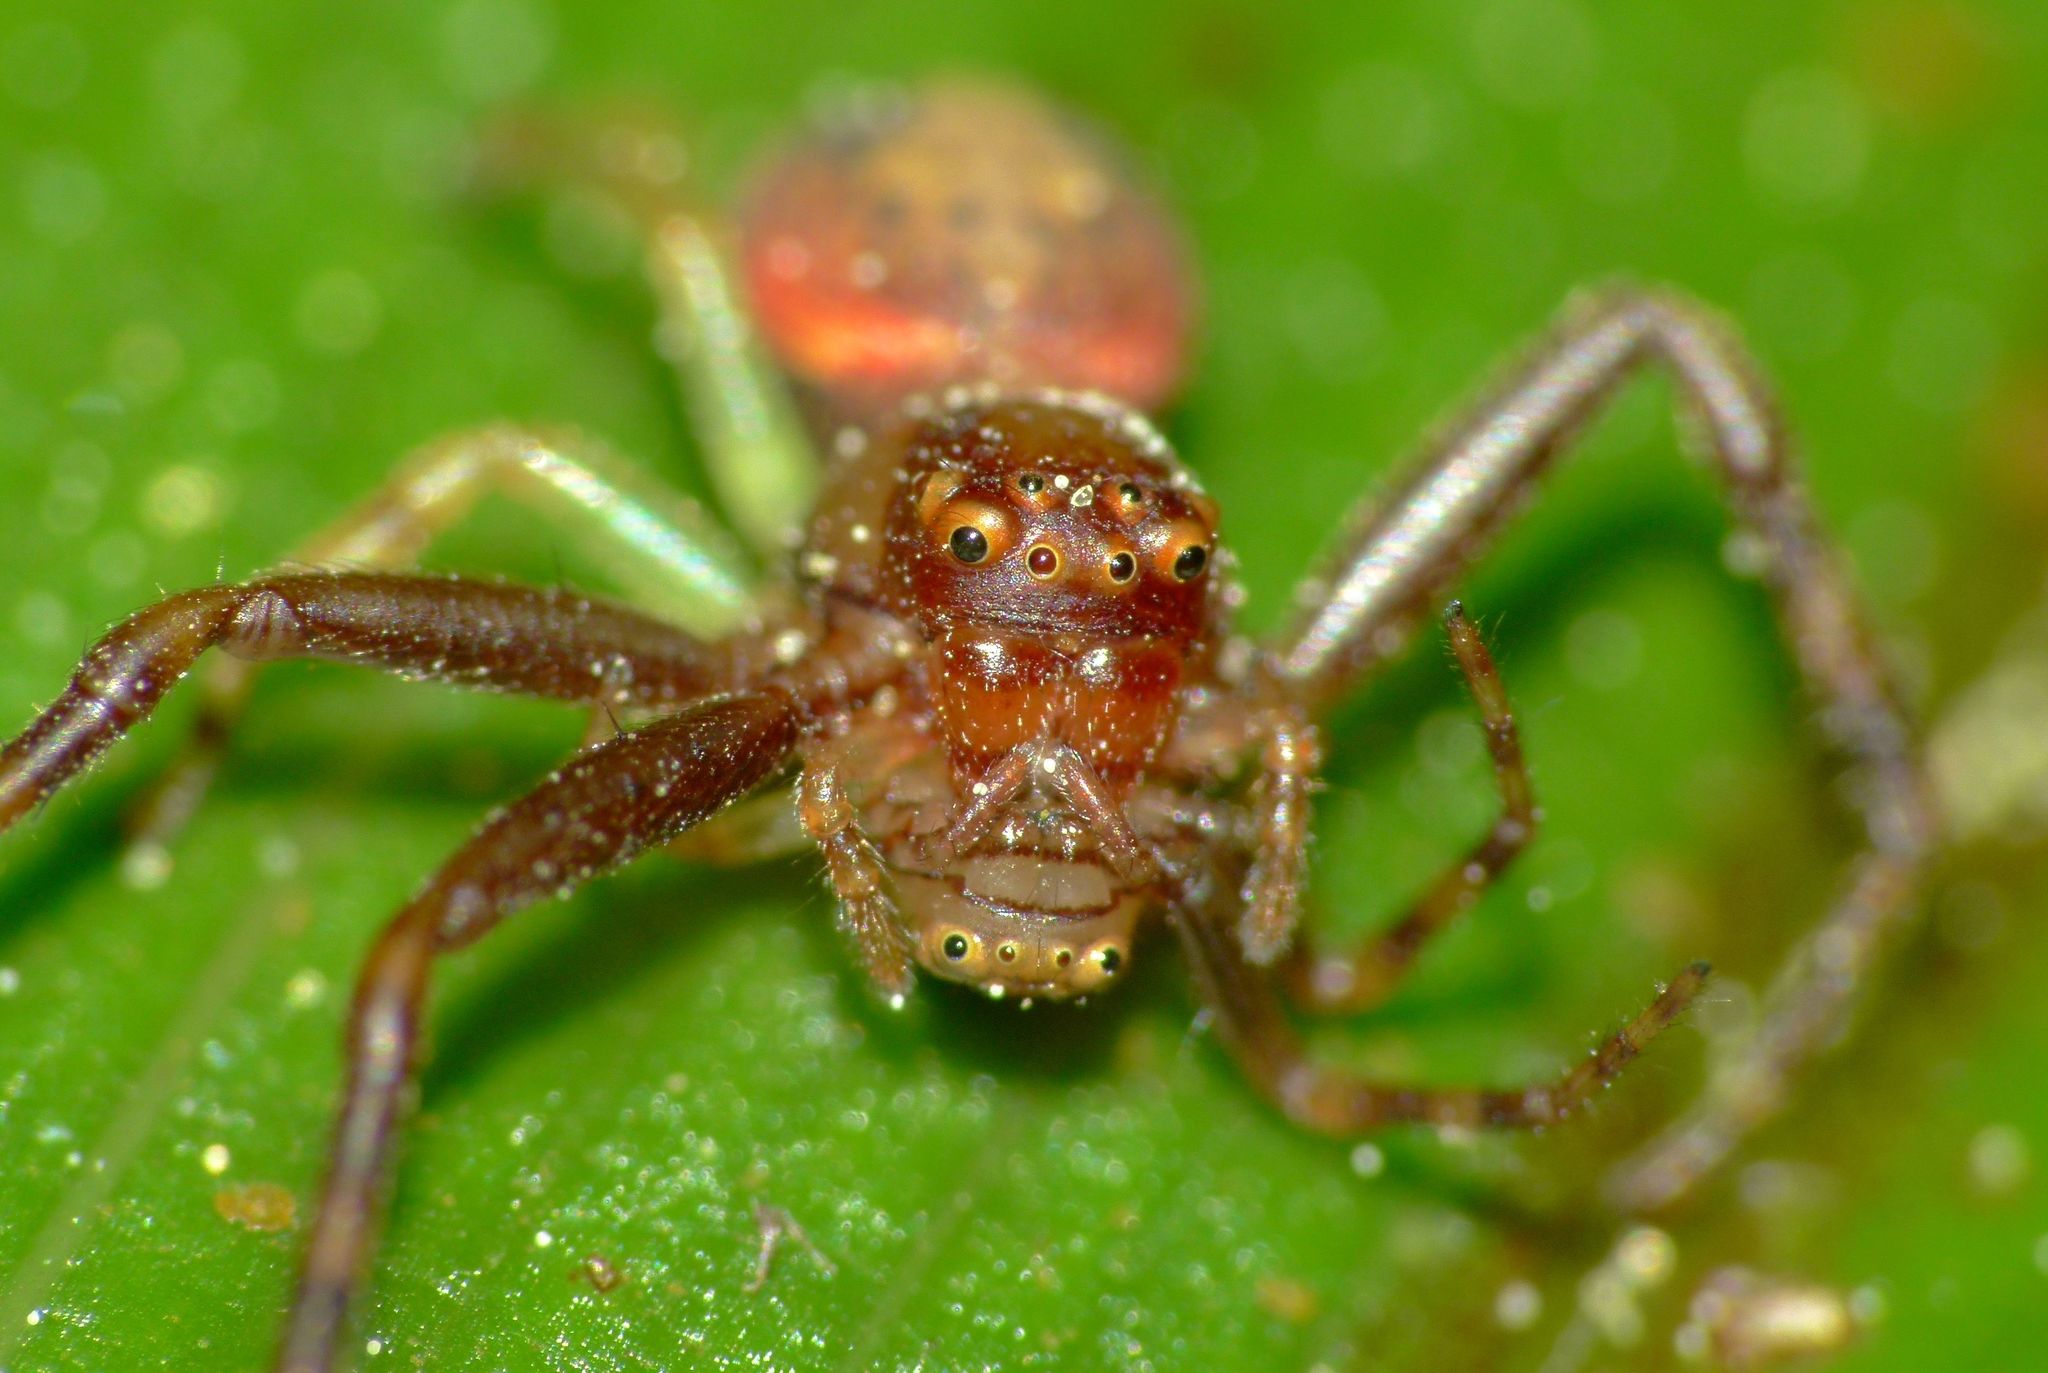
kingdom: Animalia
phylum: Arthropoda
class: Arachnida
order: Araneae
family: Thomisidae
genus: Diaea
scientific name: Diaea ambara
